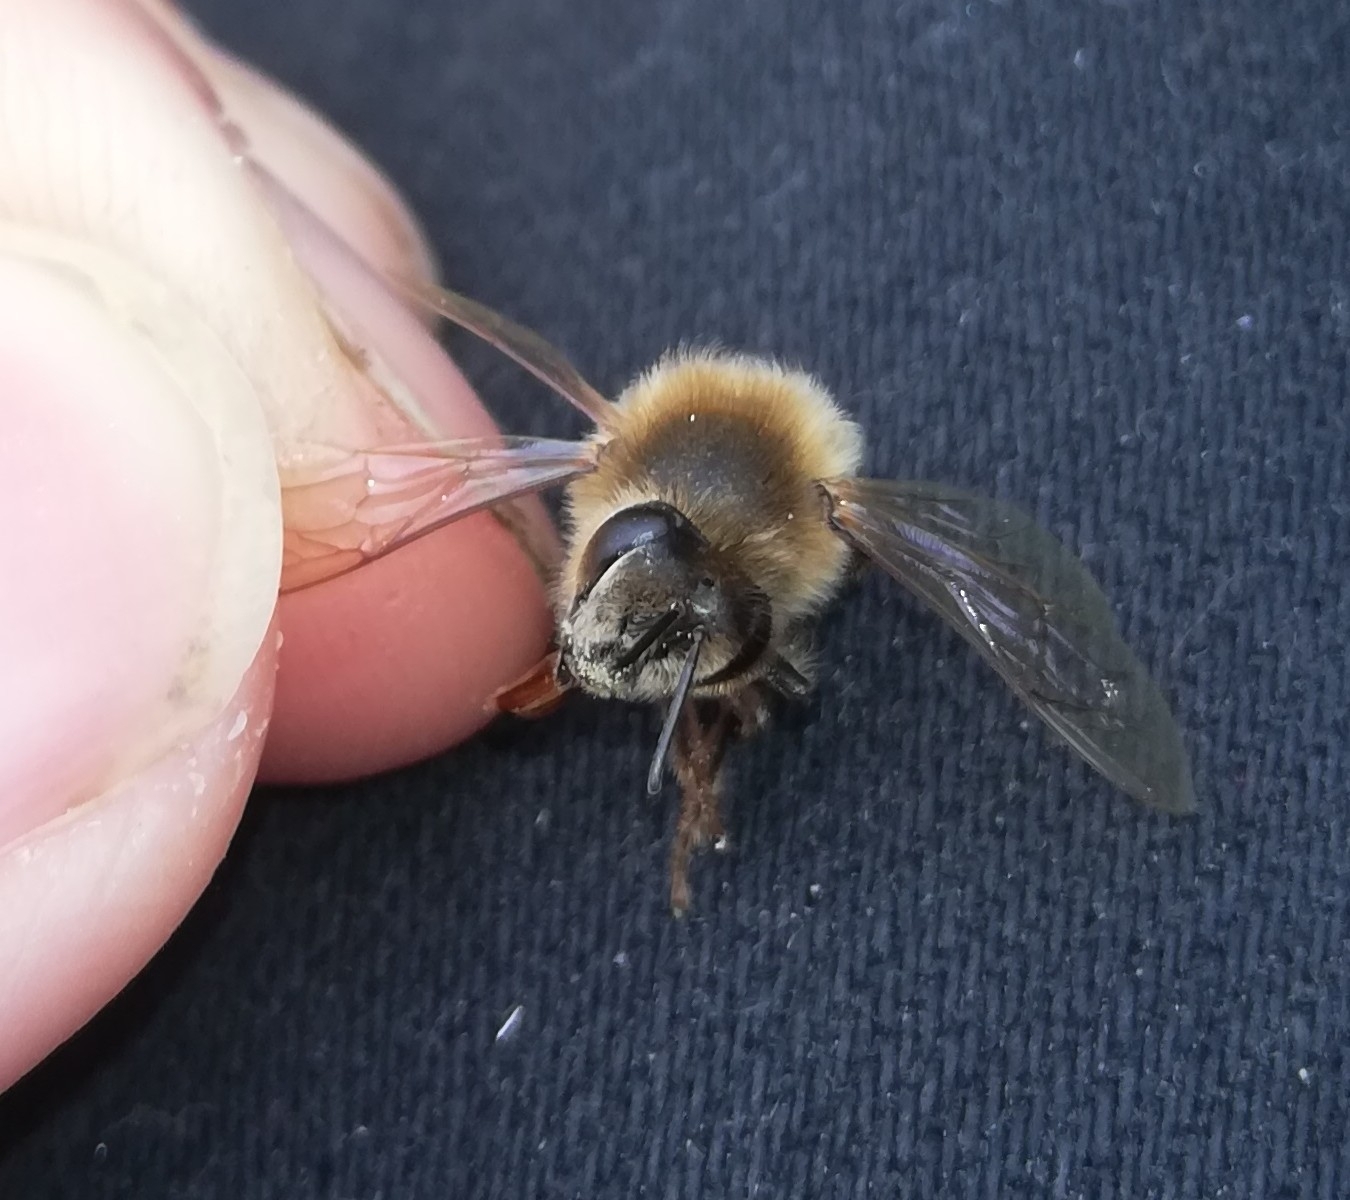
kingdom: Animalia
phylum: Arthropoda
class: Insecta
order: Hymenoptera
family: Apidae
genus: Apis
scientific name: Apis mellifera
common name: Honey bee
